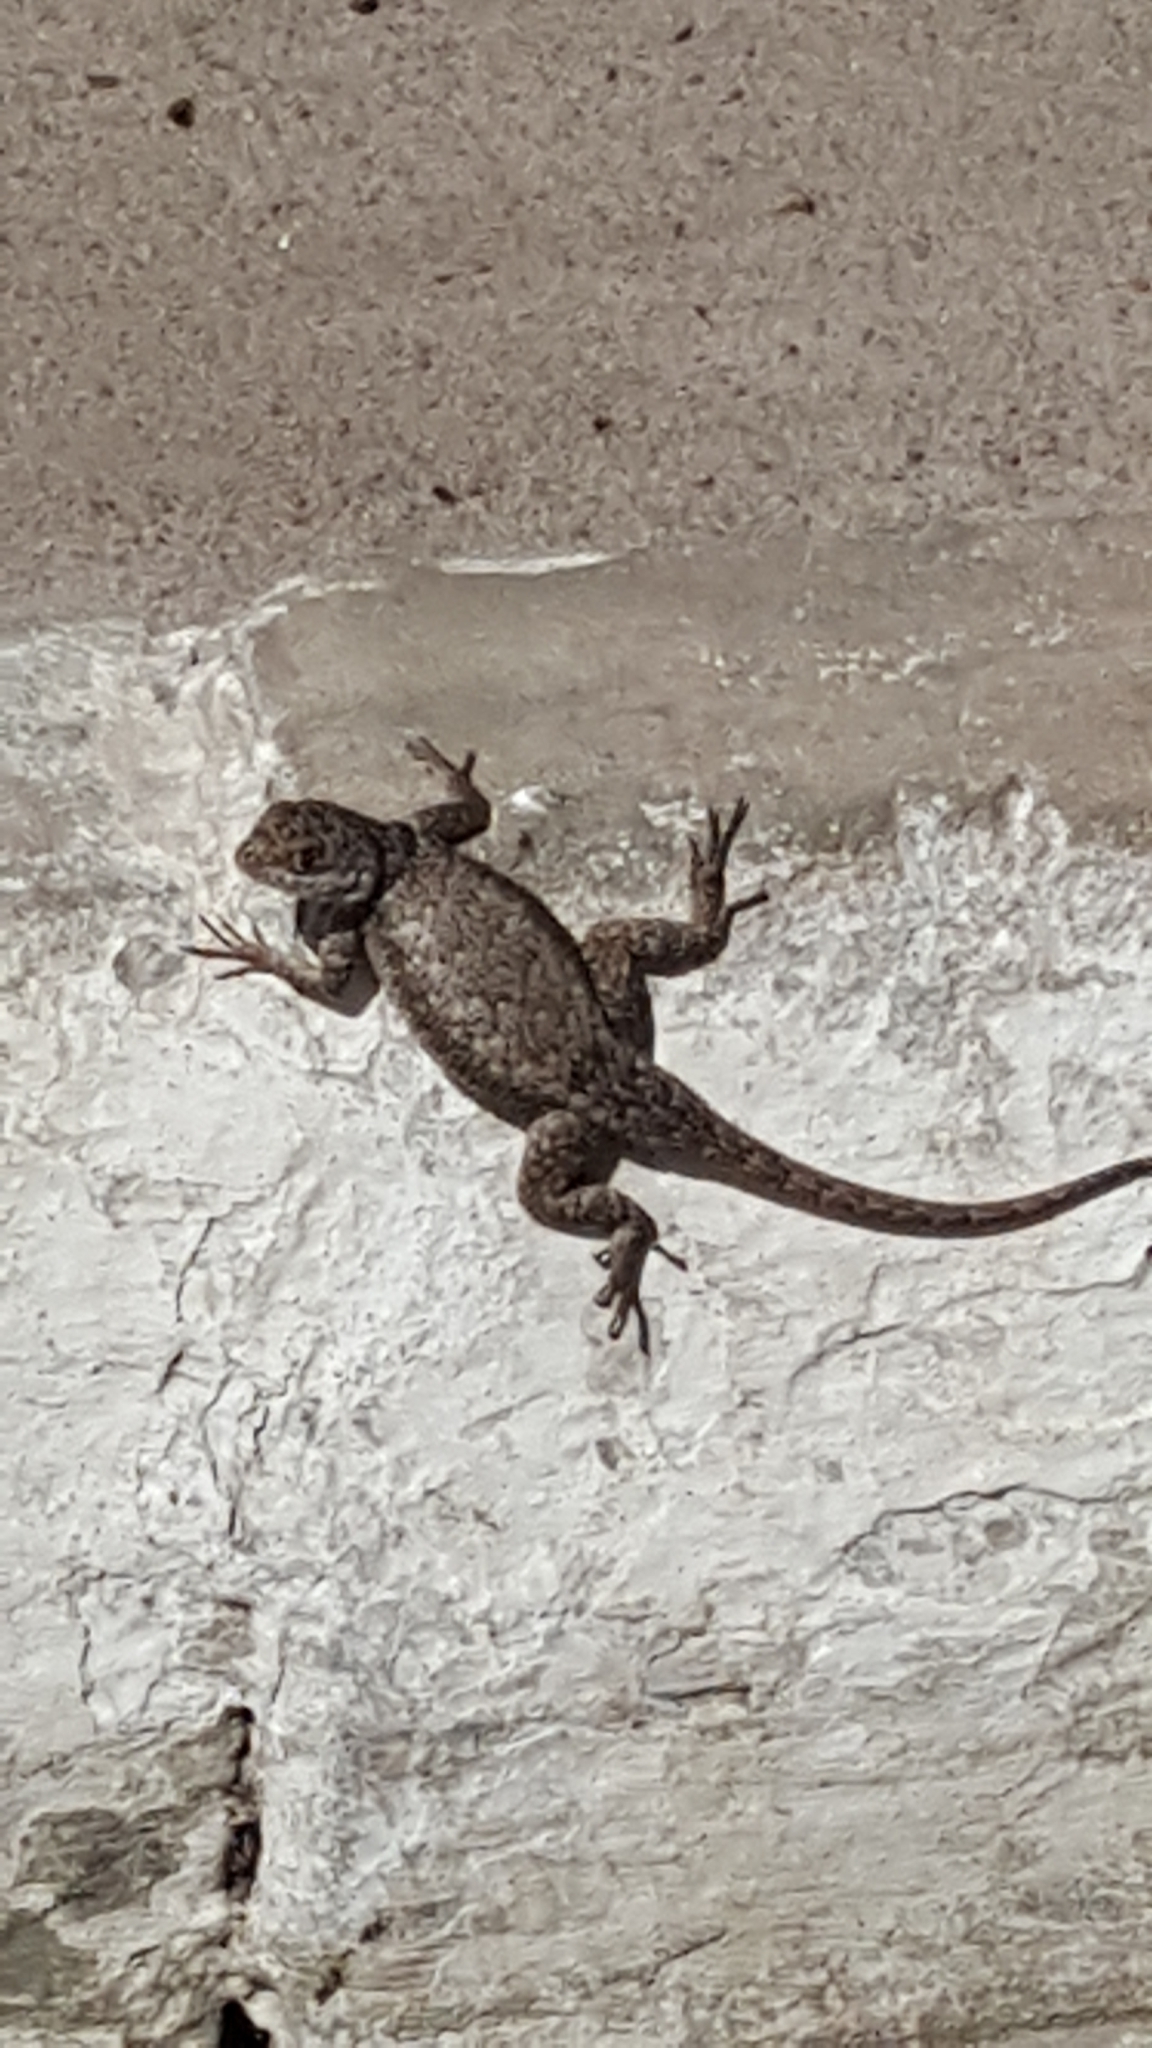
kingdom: Animalia
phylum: Chordata
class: Squamata
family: Tropiduridae
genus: Tropidurus
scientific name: Tropidurus hispidus
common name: Peters' lava lizard
